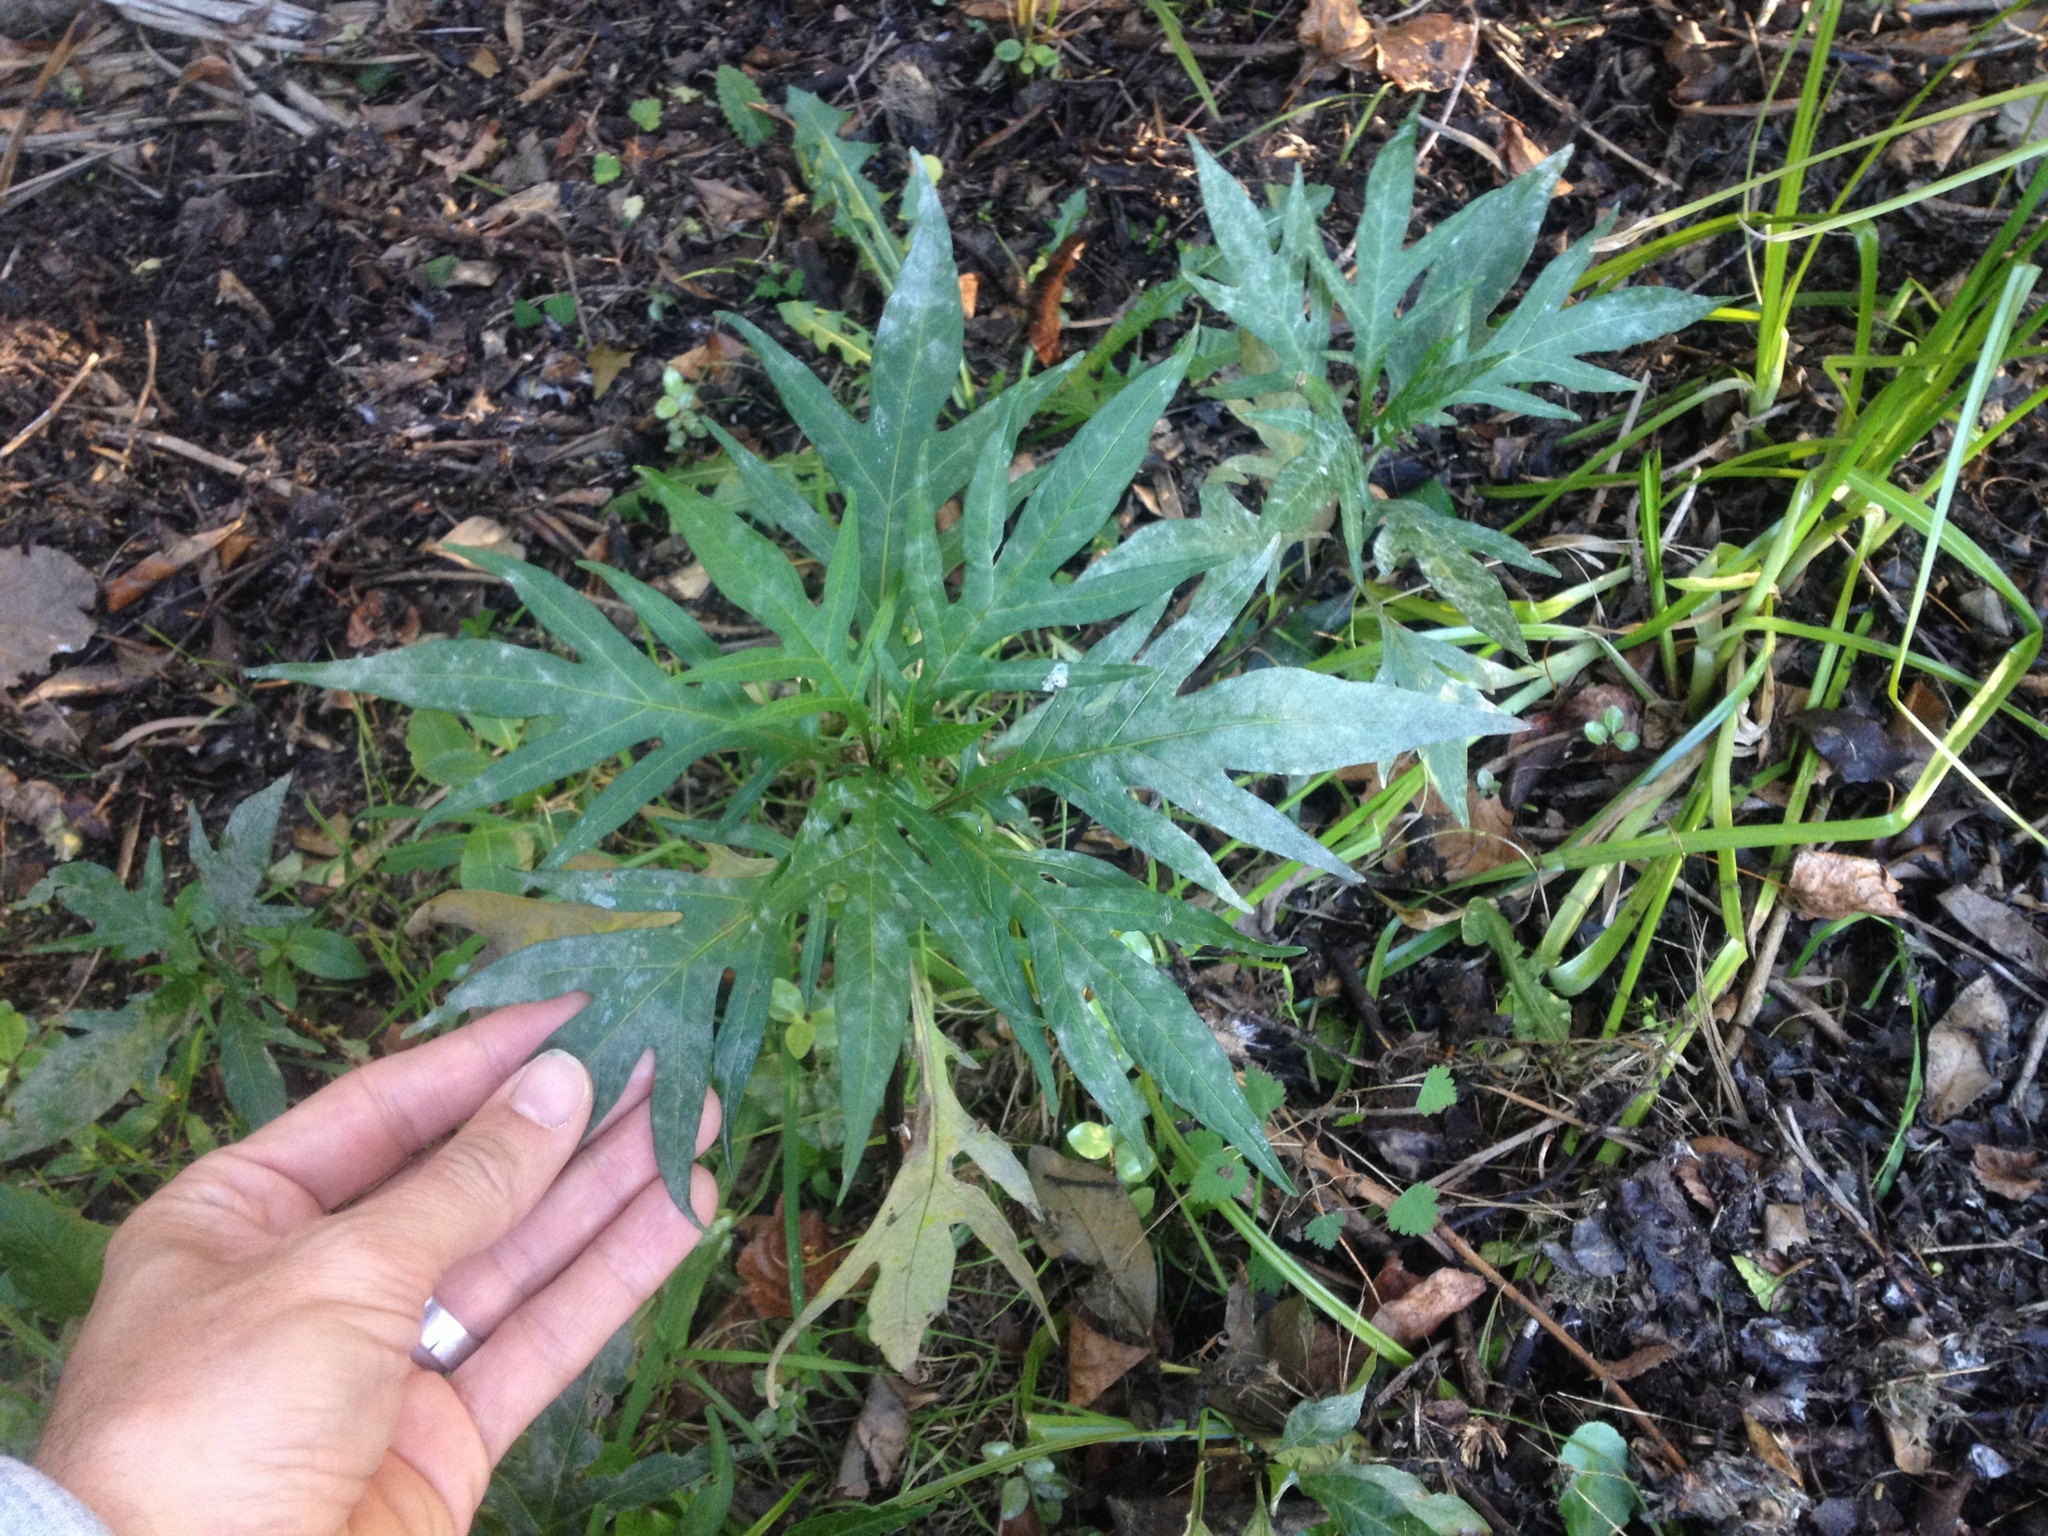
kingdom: Plantae
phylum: Tracheophyta
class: Magnoliopsida
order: Solanales
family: Solanaceae
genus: Solanum
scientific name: Solanum laciniatum
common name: Kangaroo-apple
